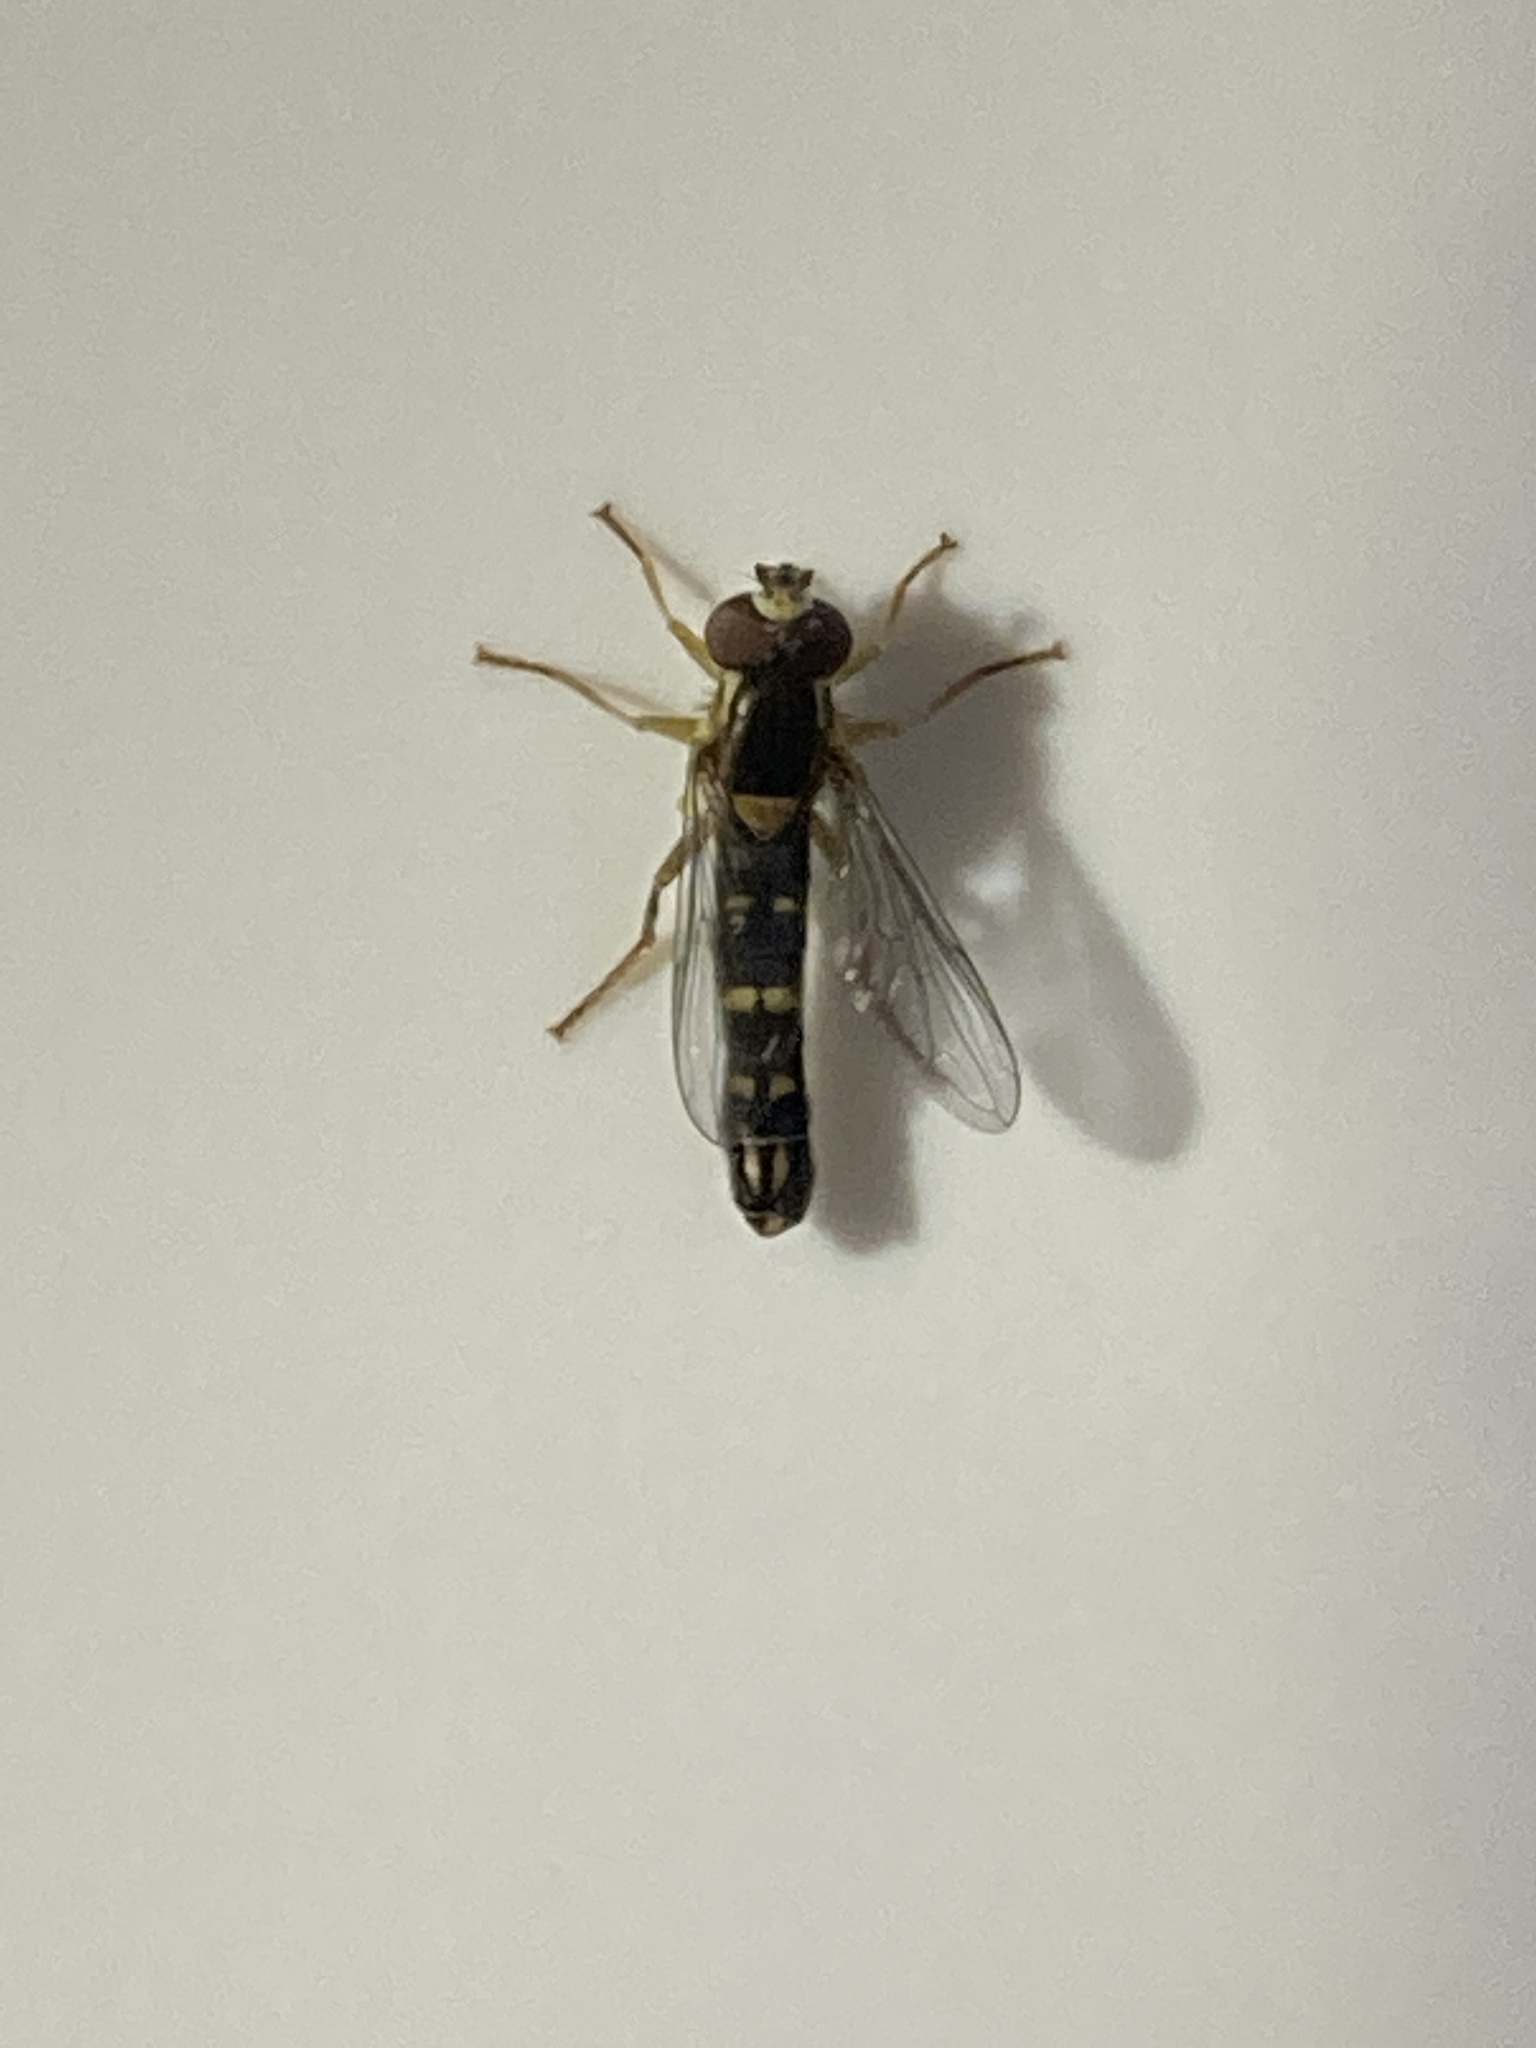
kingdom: Animalia
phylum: Arthropoda
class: Insecta
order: Diptera
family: Syrphidae
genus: Sphaerophoria
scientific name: Sphaerophoria scripta
